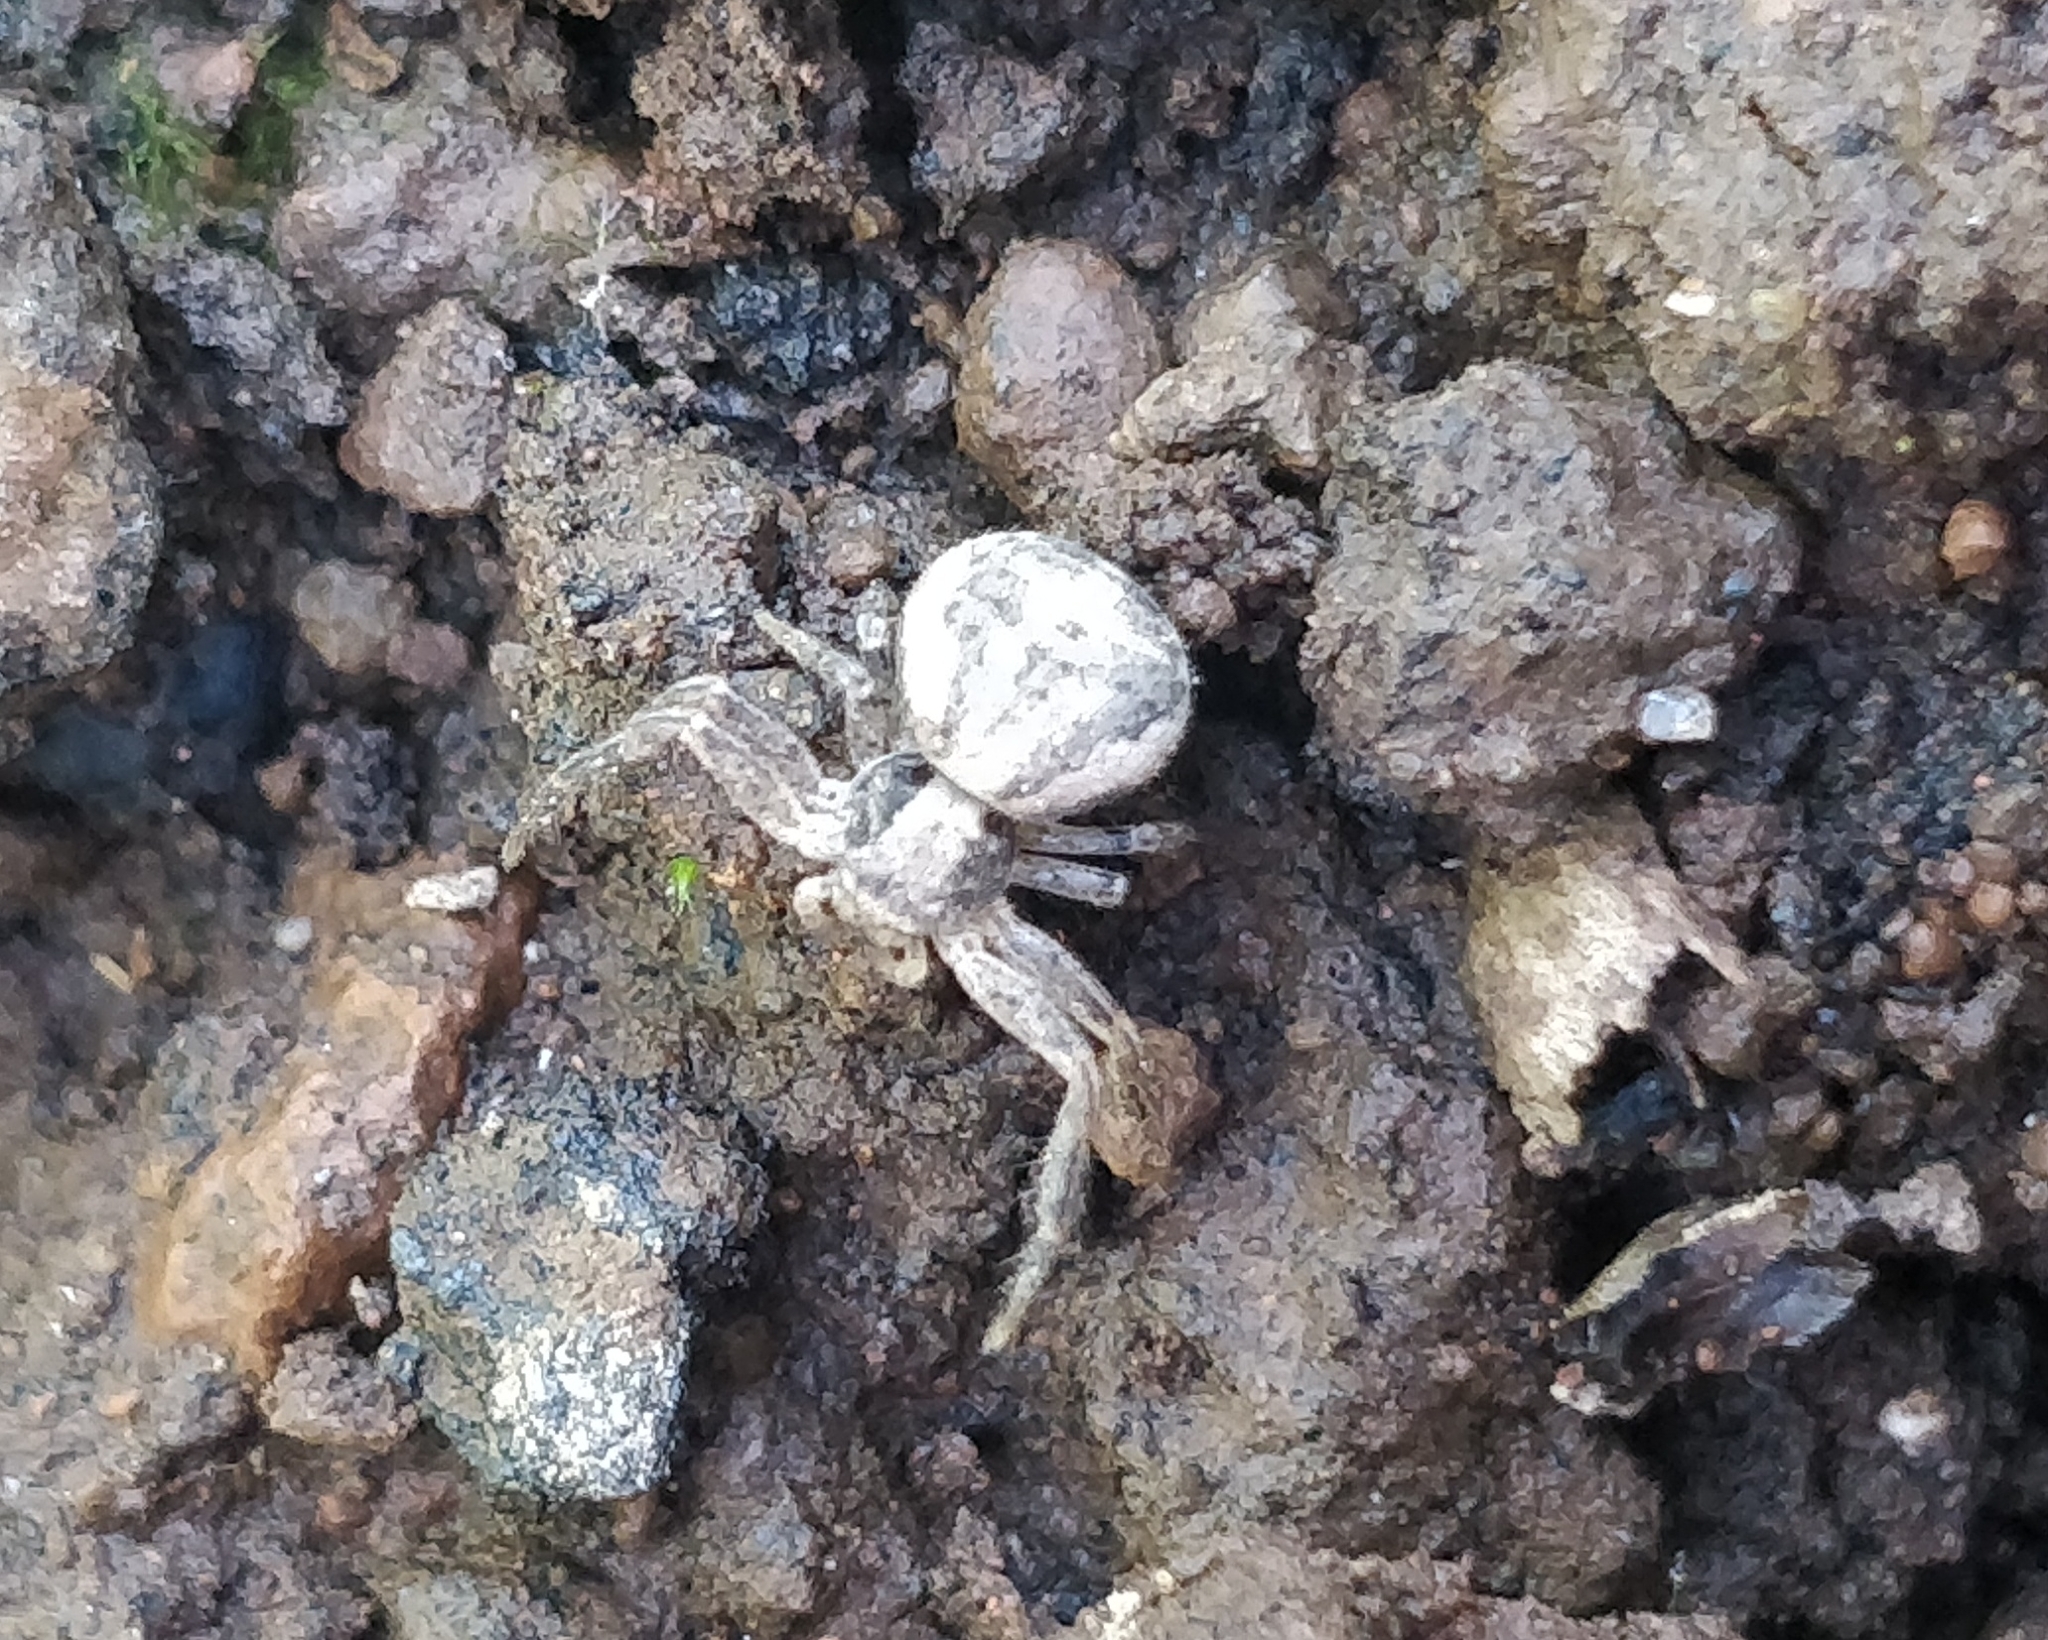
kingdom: Animalia
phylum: Arthropoda
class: Arachnida
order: Araneae
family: Thomisidae
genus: Xysticus
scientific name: Xysticus verneaui
